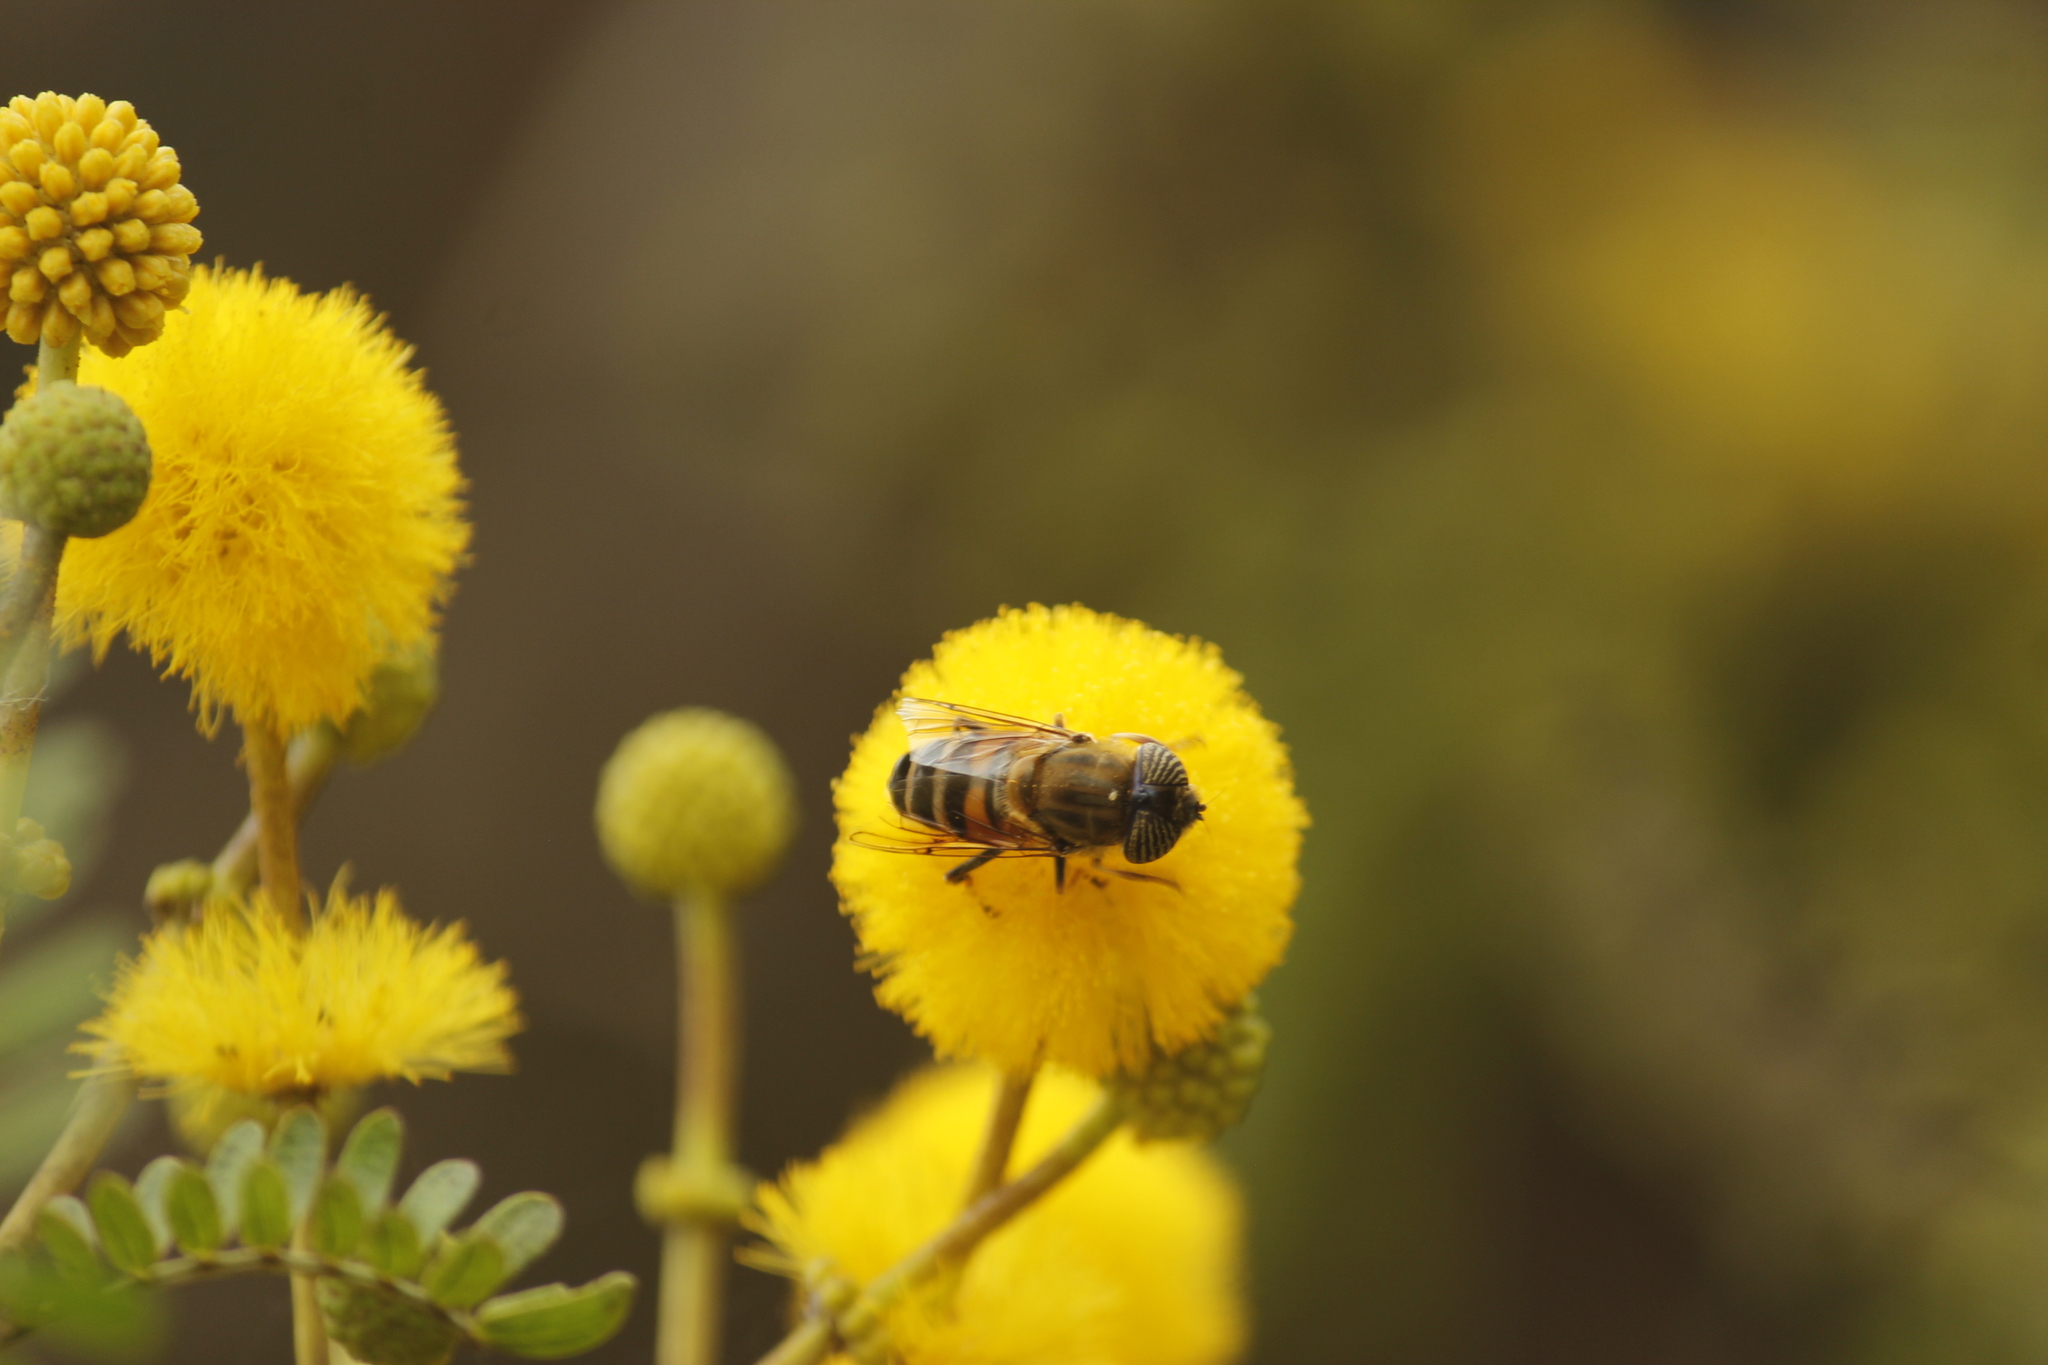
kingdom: Animalia
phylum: Arthropoda
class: Insecta
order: Diptera
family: Syrphidae
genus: Eristalinus
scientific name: Eristalinus taeniops
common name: Syrphid fly
